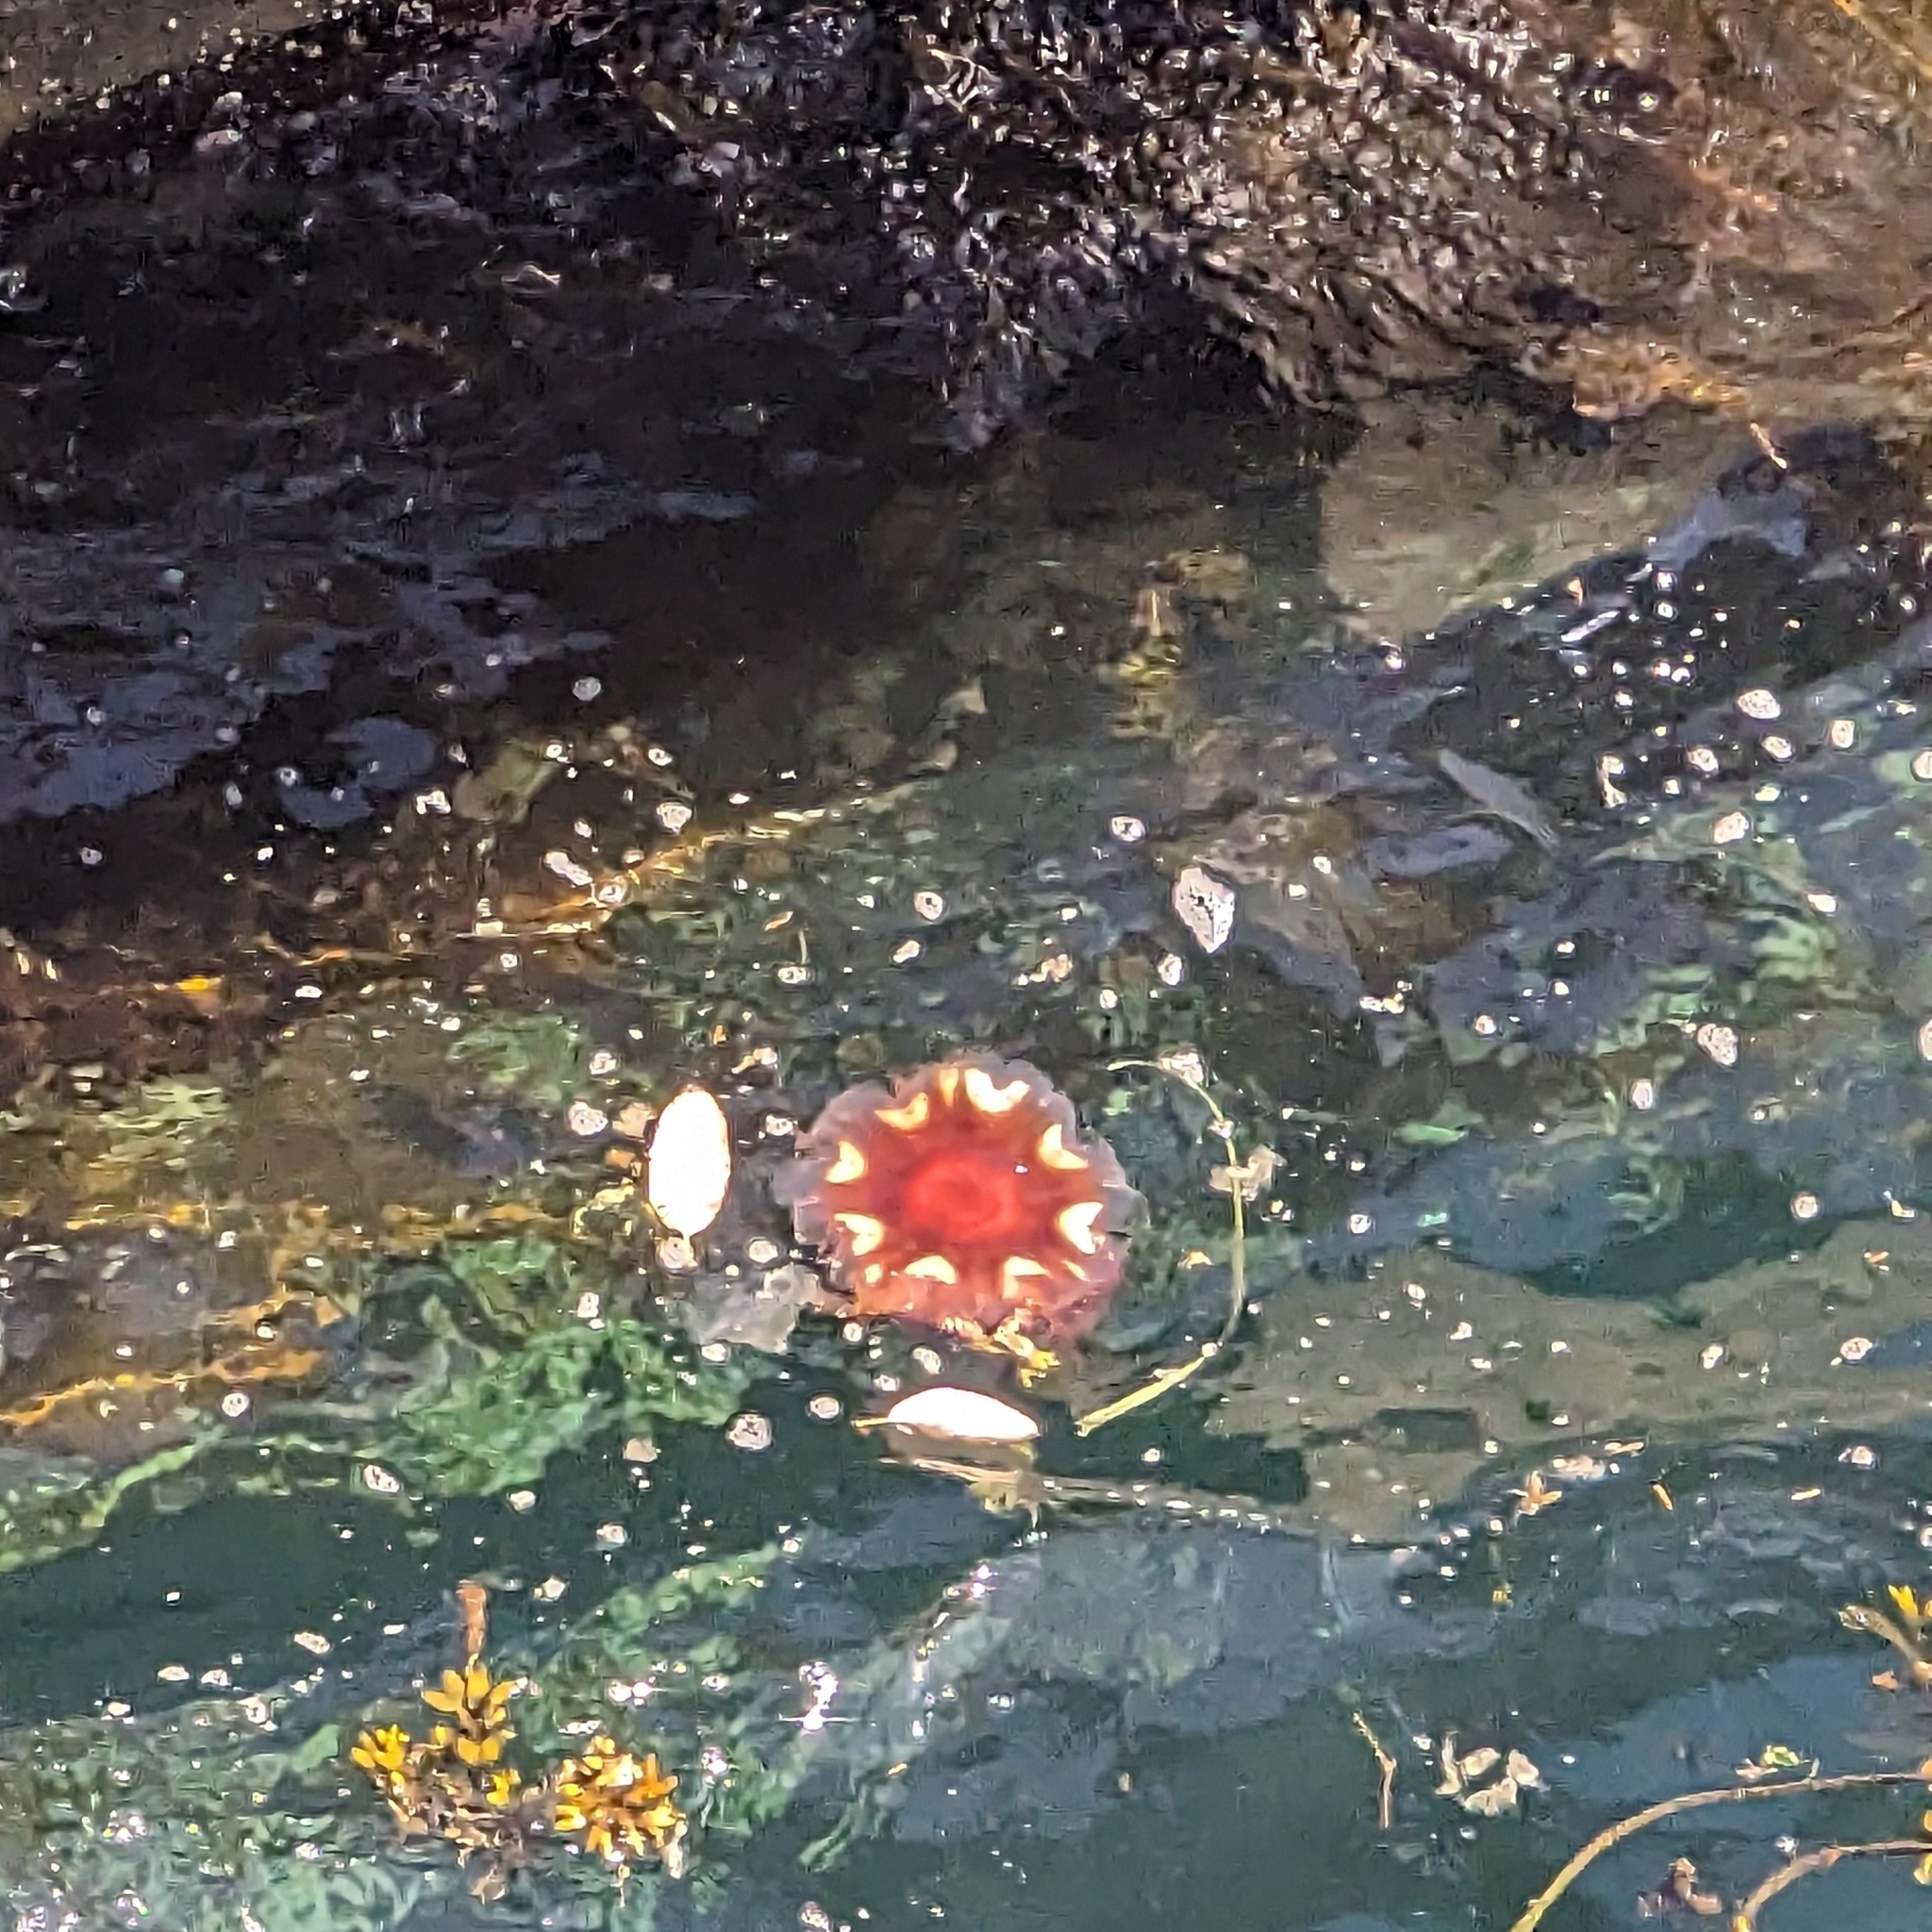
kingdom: Animalia
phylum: Cnidaria
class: Scyphozoa
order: Semaeostomeae
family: Cyaneidae
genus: Cyanea
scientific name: Cyanea ferruginea
